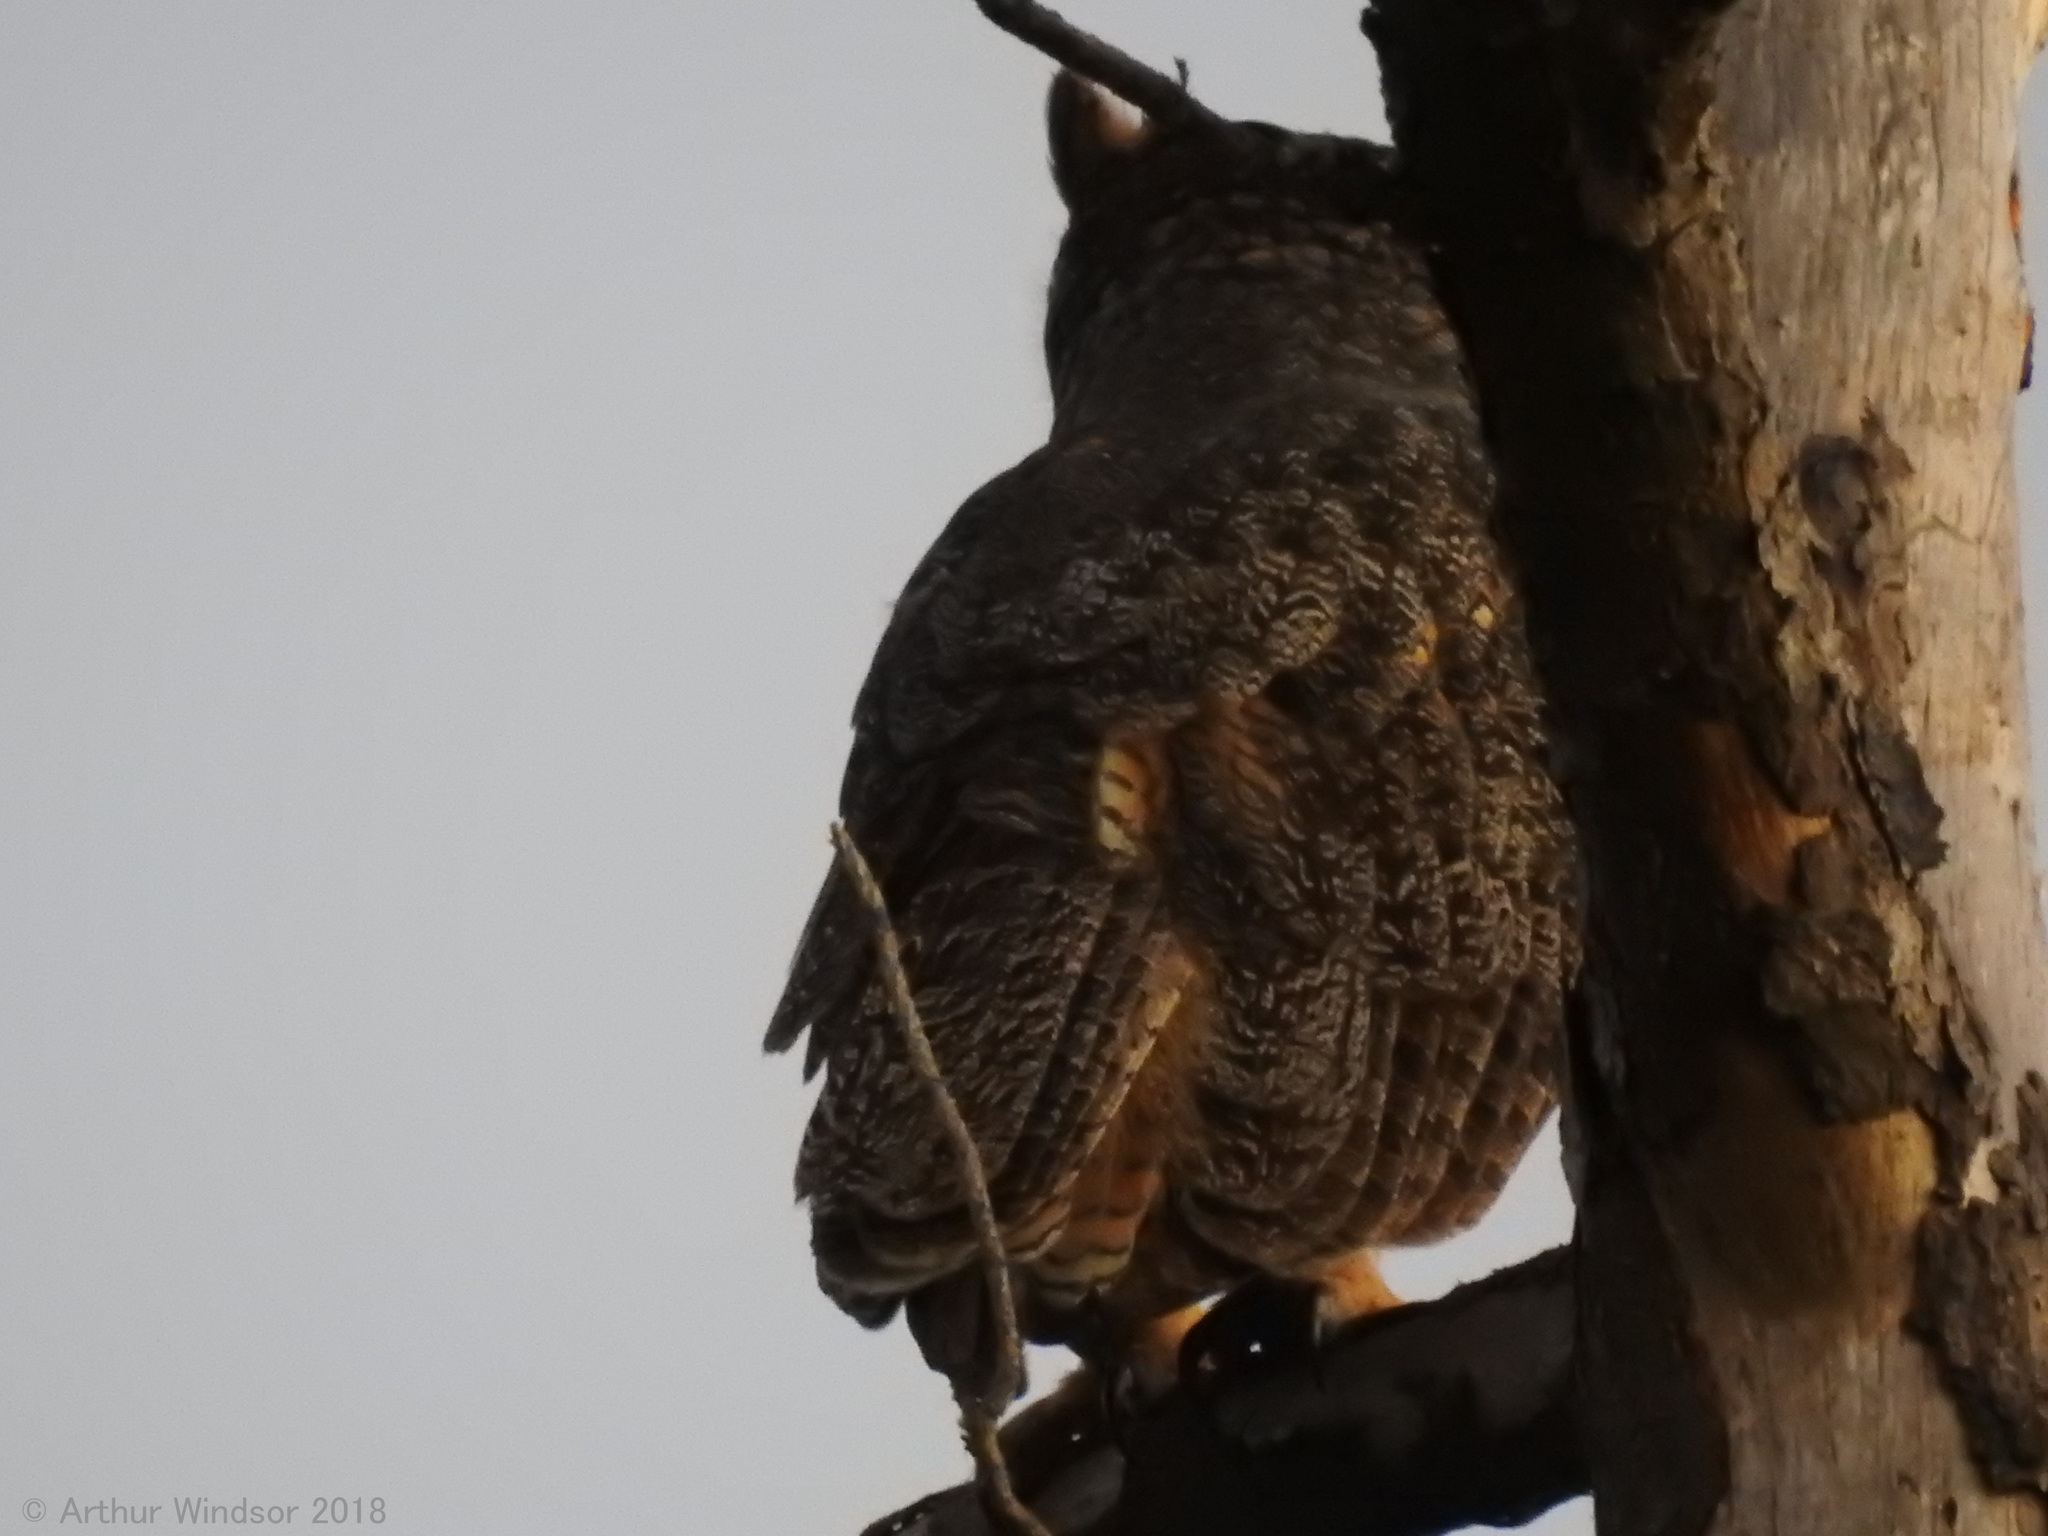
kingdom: Animalia
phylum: Chordata
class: Aves
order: Strigiformes
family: Strigidae
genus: Bubo
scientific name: Bubo virginianus
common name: Great horned owl
